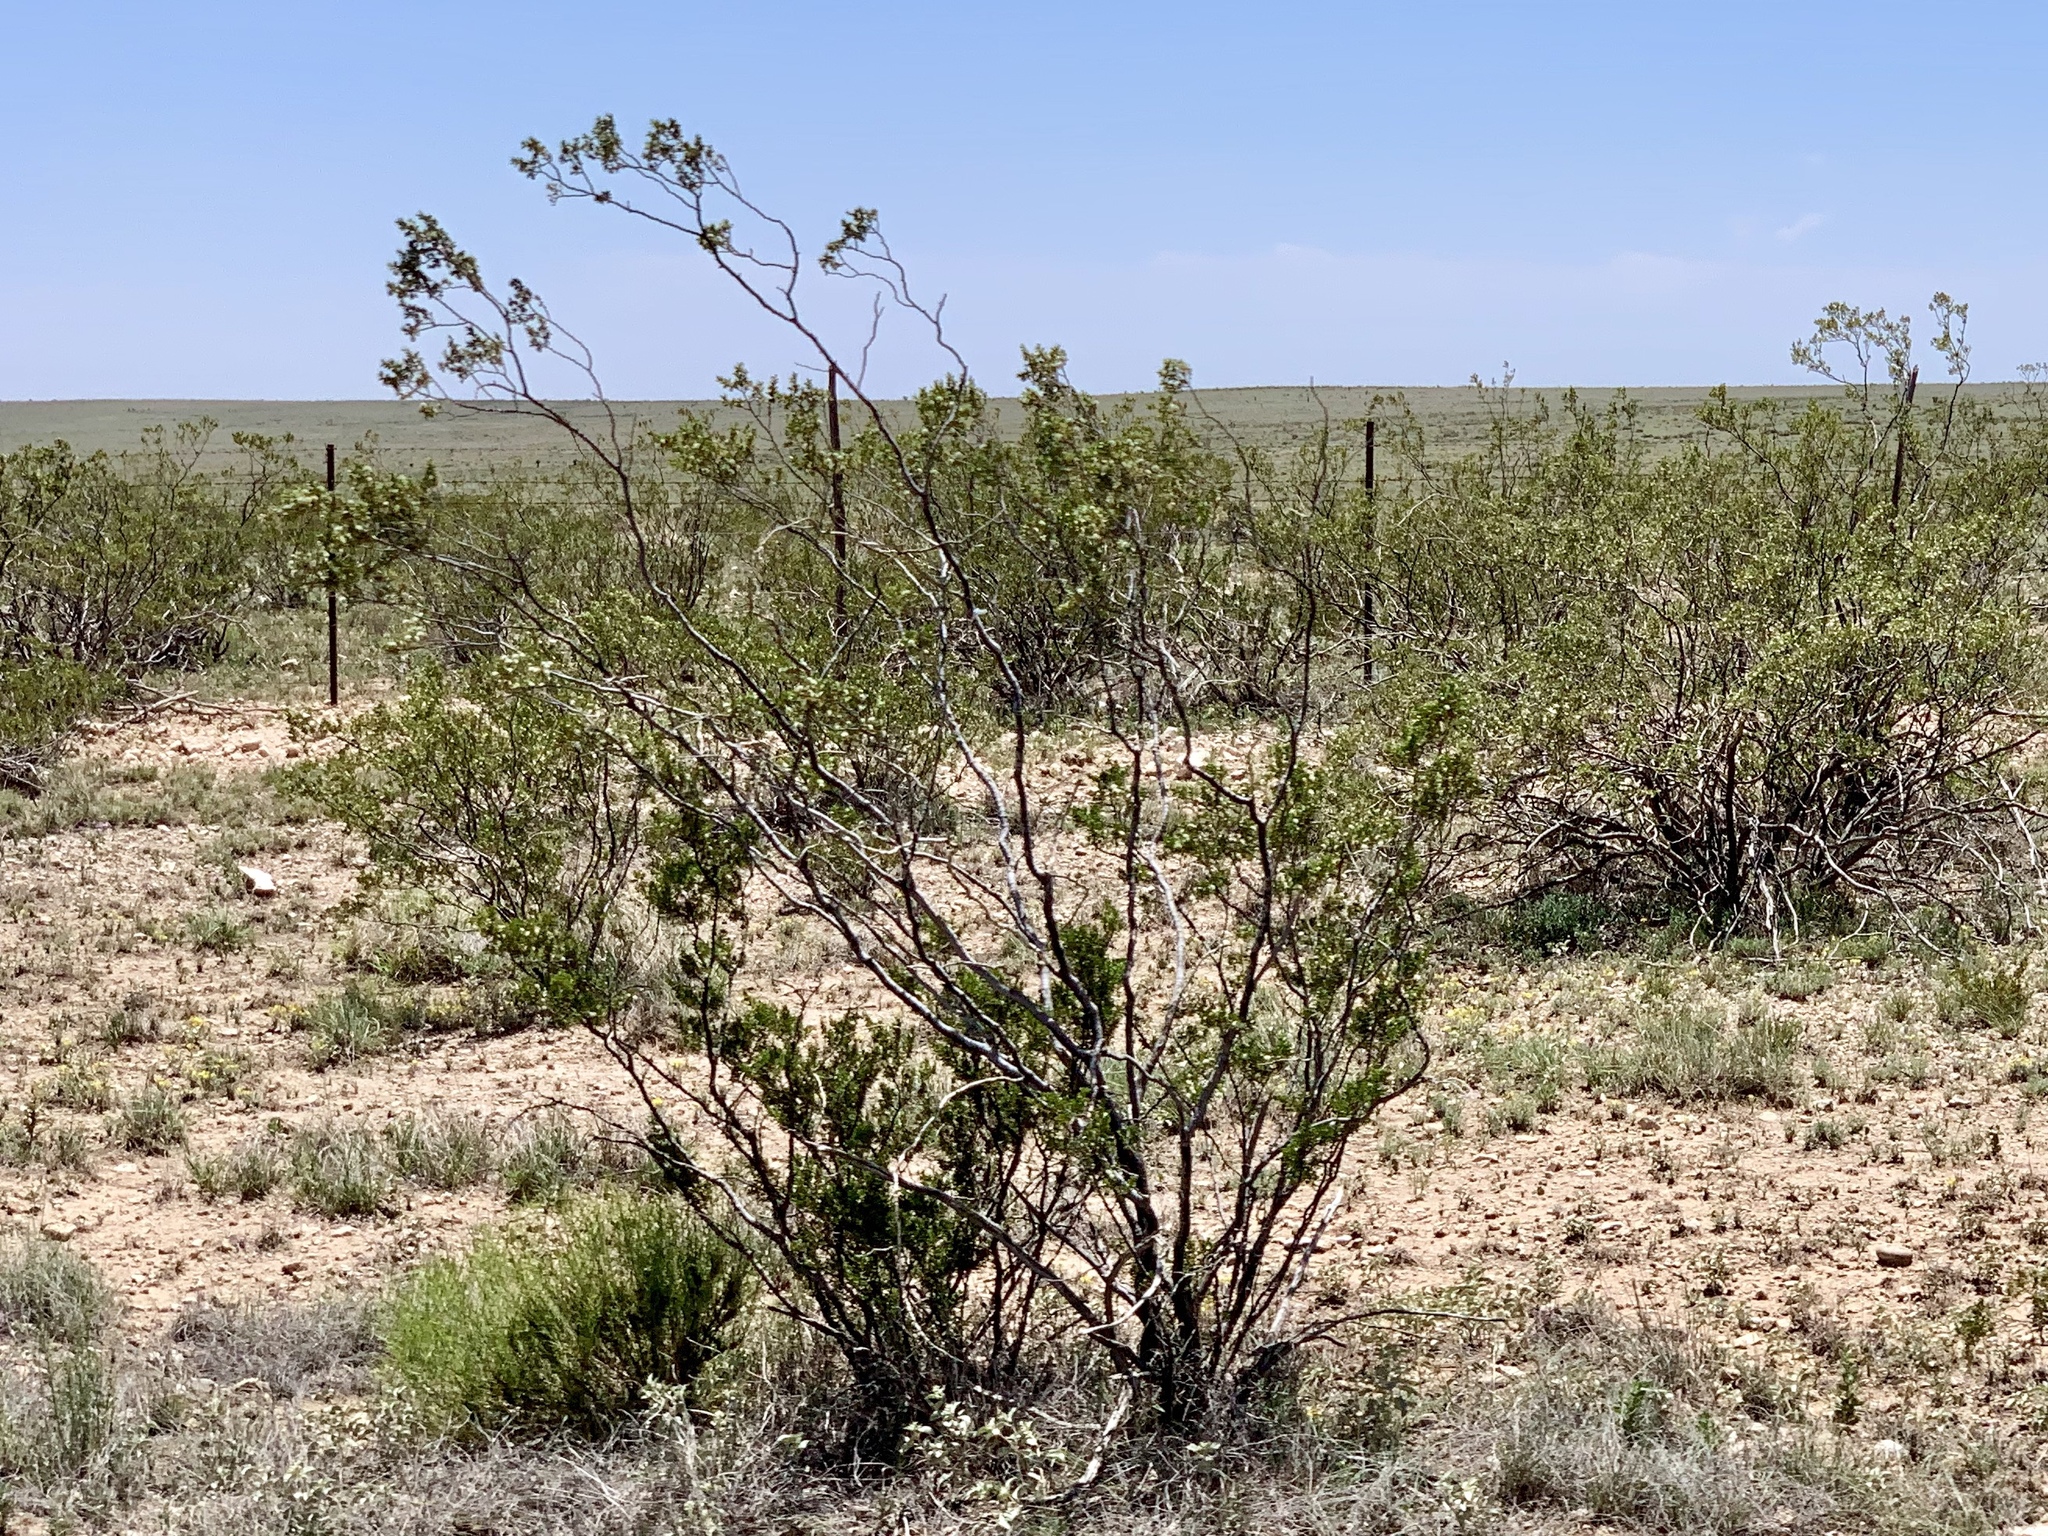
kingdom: Plantae
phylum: Tracheophyta
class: Magnoliopsida
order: Zygophyllales
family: Zygophyllaceae
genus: Larrea
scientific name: Larrea tridentata
